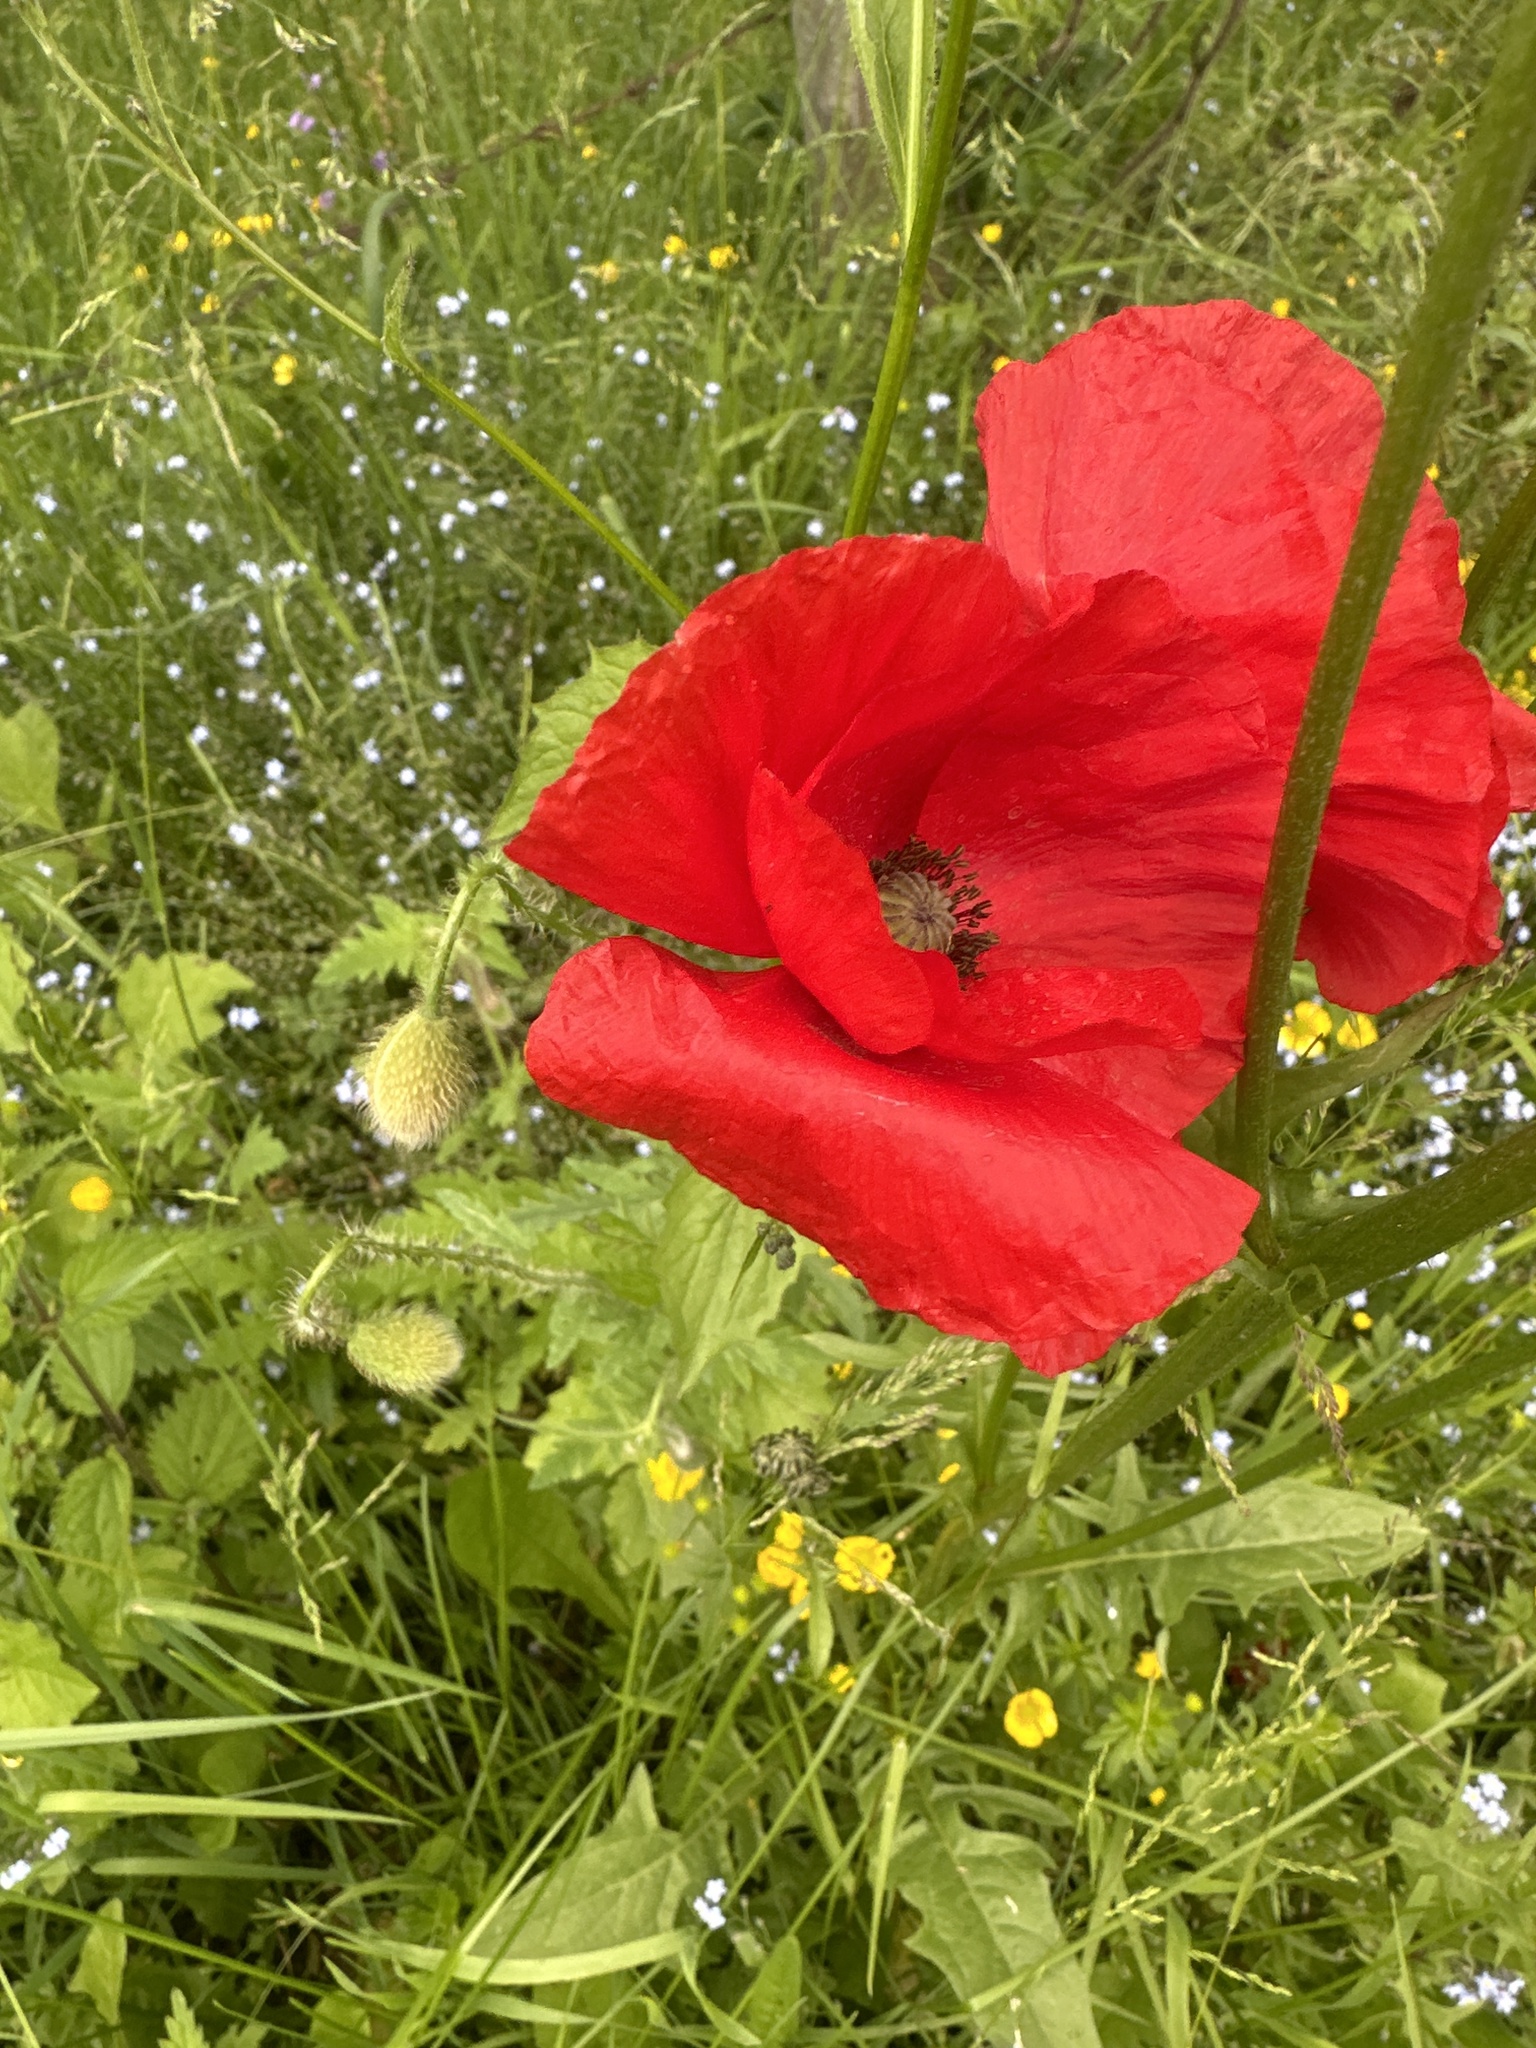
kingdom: Plantae
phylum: Tracheophyta
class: Magnoliopsida
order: Ranunculales
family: Papaveraceae
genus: Papaver
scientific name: Papaver rhoeas
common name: Corn poppy
